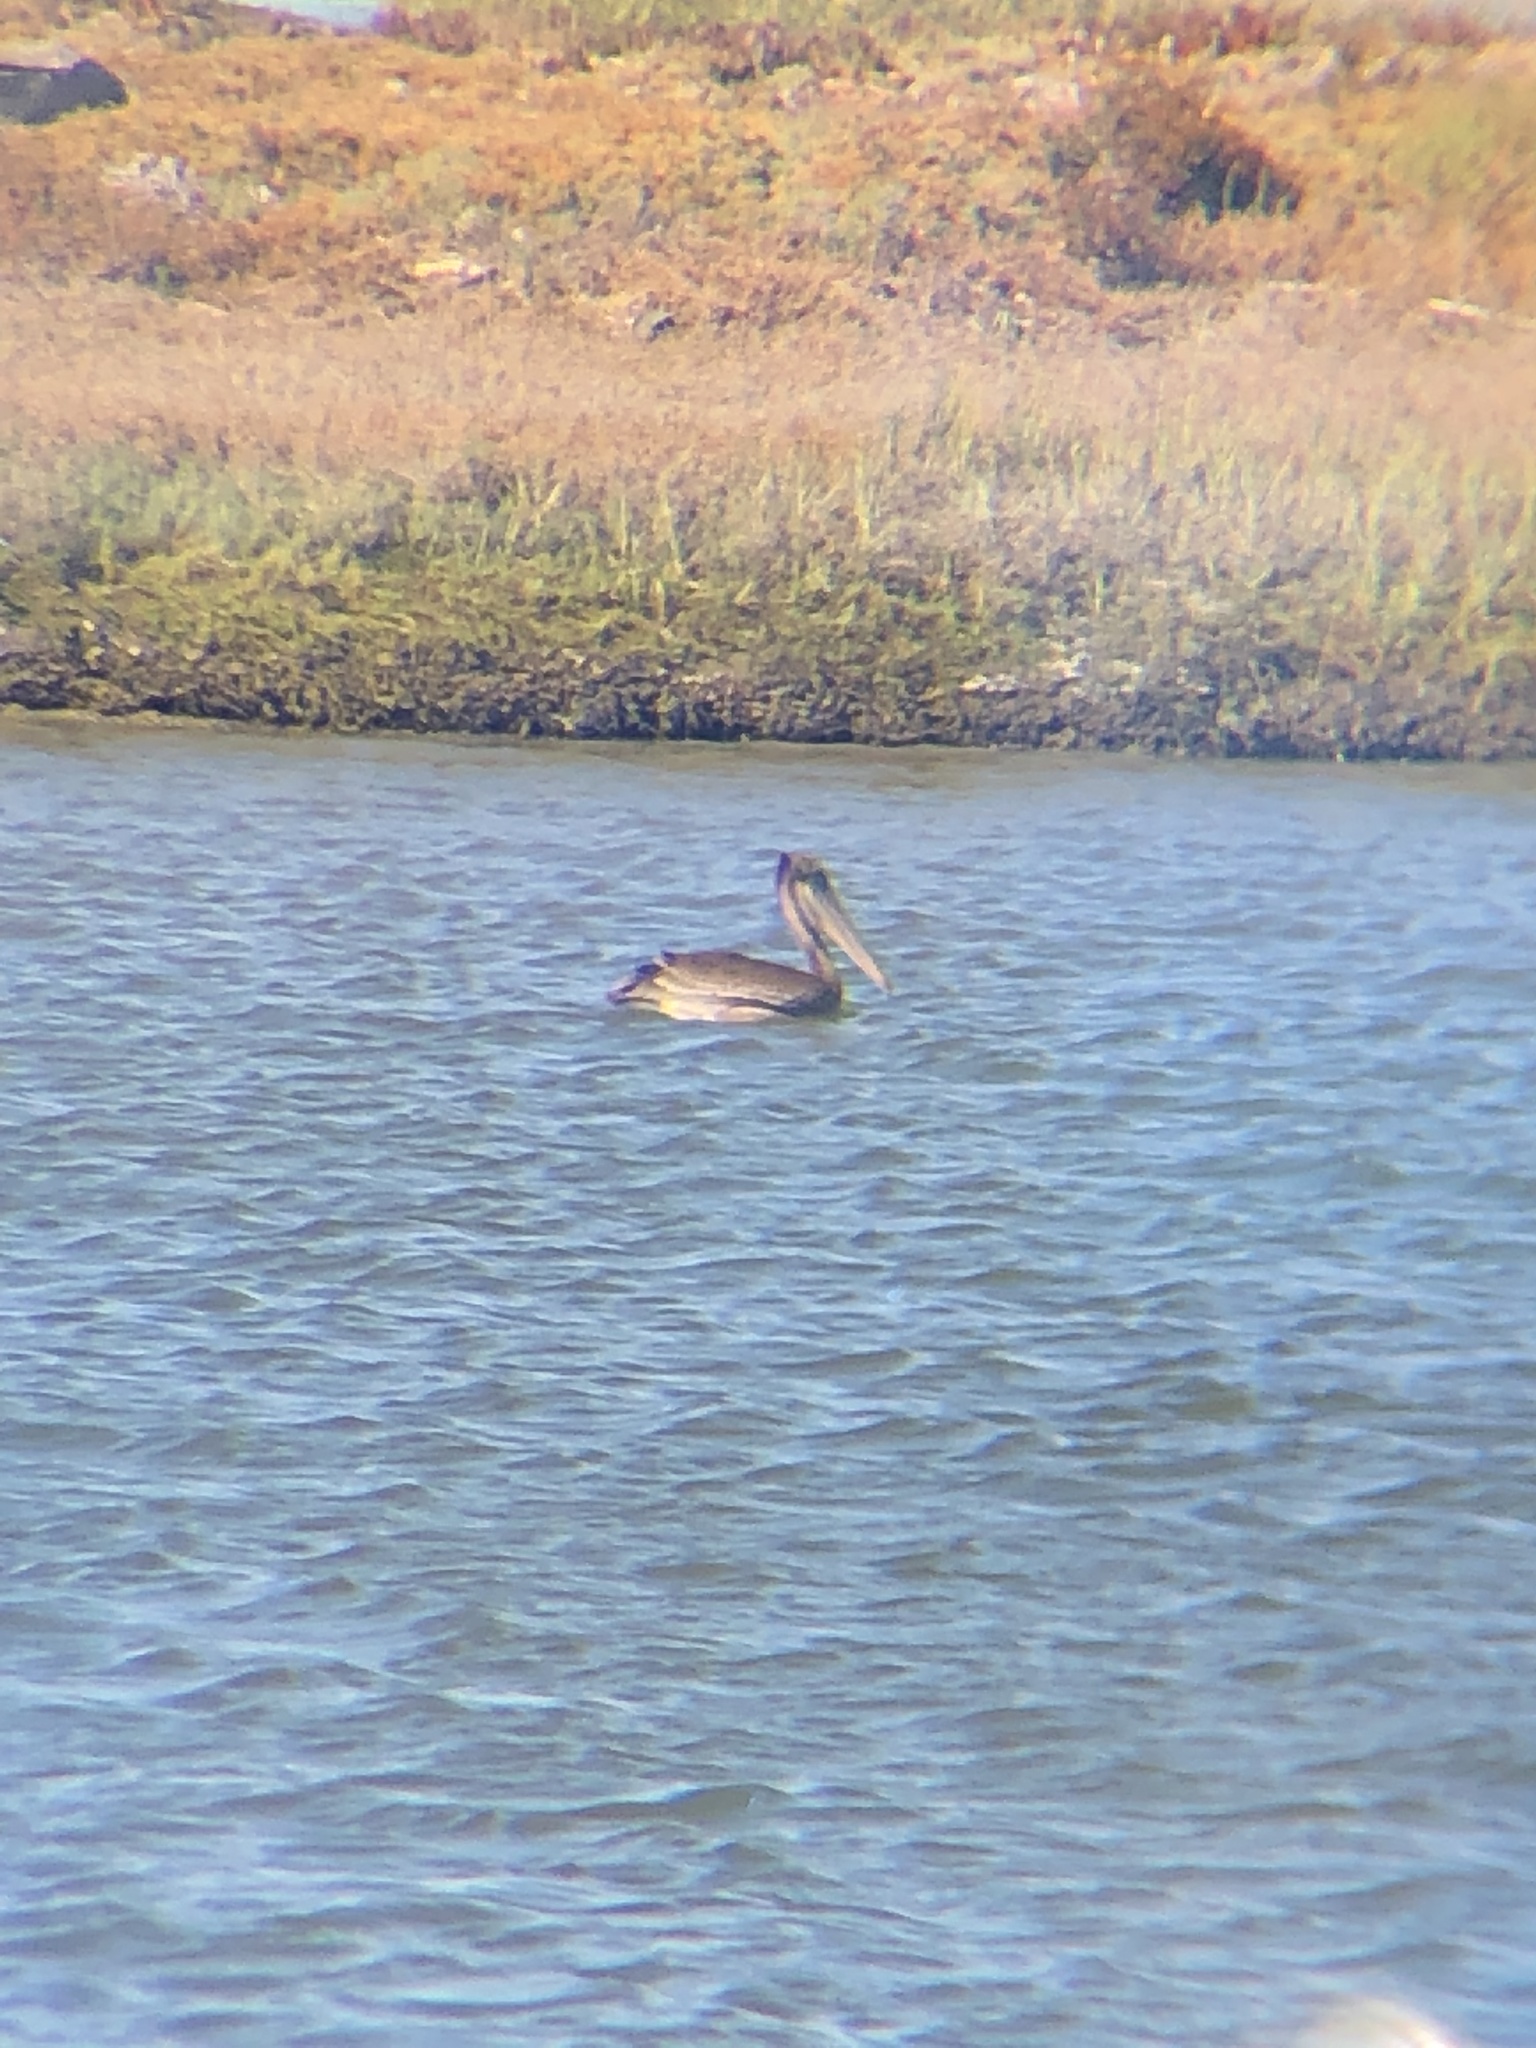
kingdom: Animalia
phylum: Chordata
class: Aves
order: Pelecaniformes
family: Pelecanidae
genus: Pelecanus
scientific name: Pelecanus occidentalis
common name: Brown pelican
